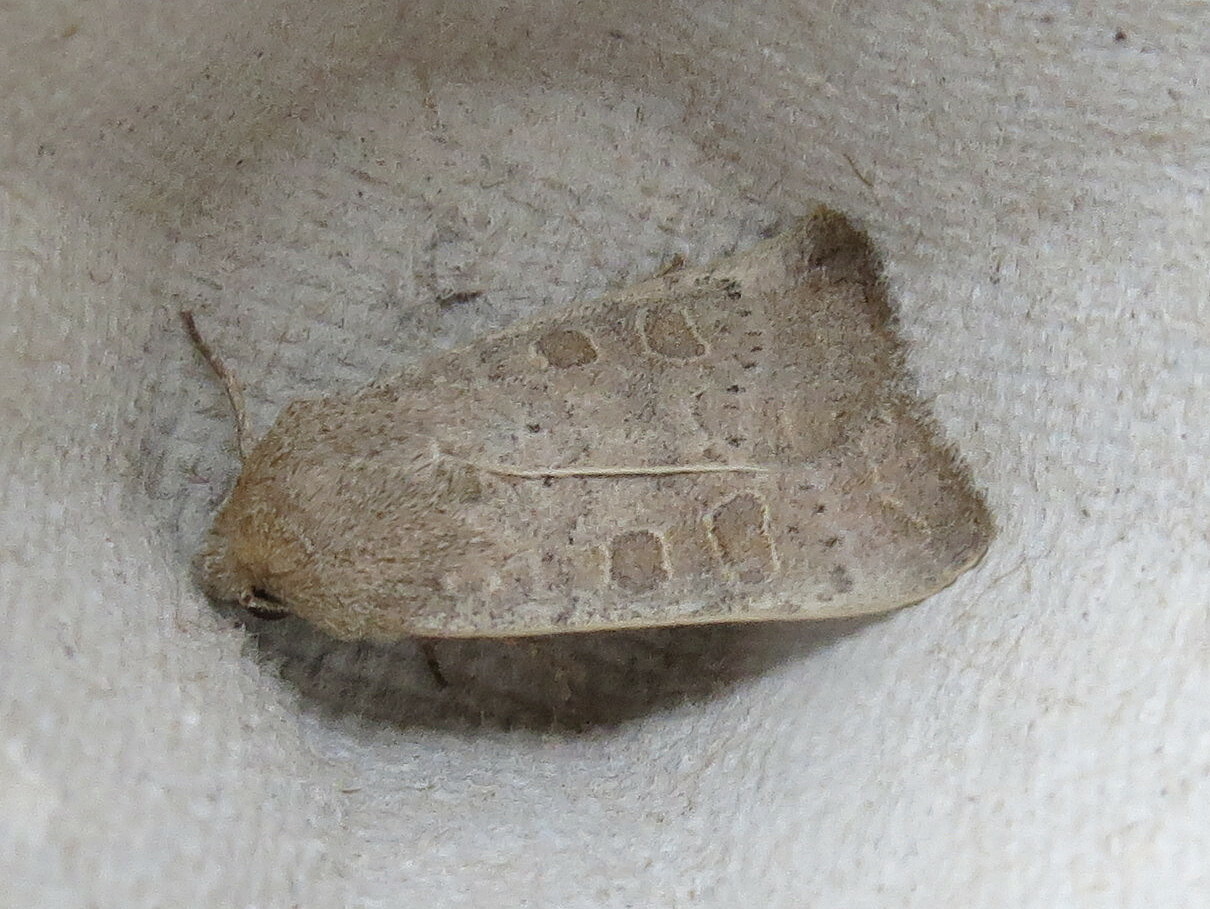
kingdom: Animalia
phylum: Arthropoda
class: Insecta
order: Lepidoptera
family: Noctuidae
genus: Hoplodrina
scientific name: Hoplodrina ambigua
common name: Vine's rustic
